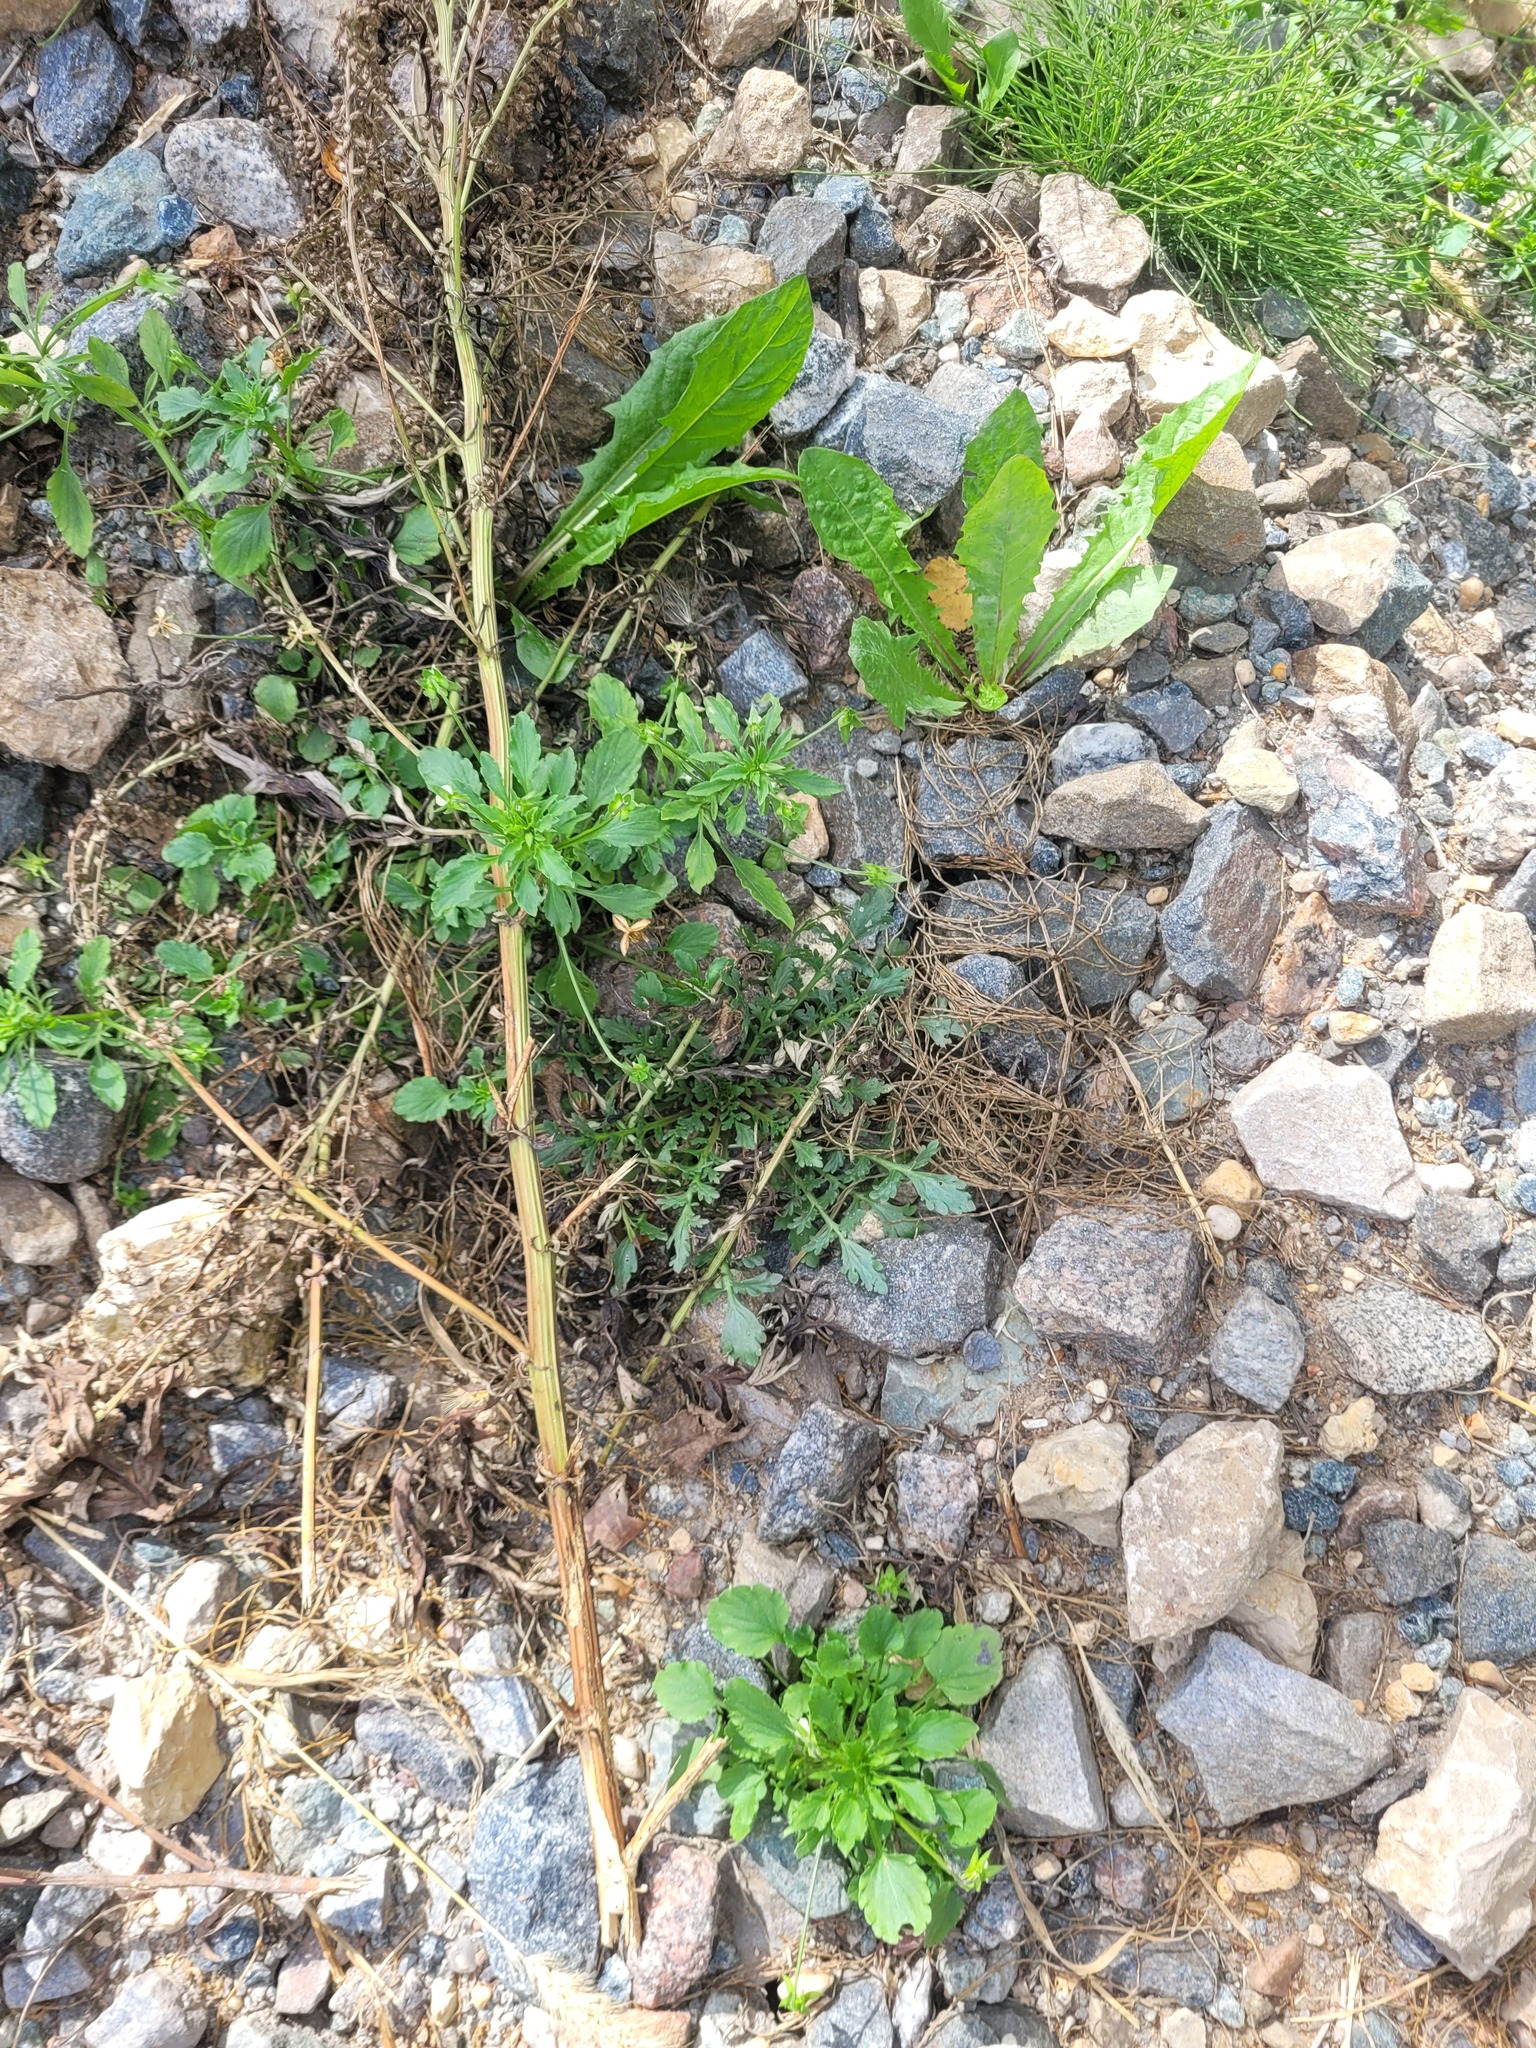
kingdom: Plantae
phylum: Tracheophyta
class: Magnoliopsida
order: Brassicales
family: Brassicaceae
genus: Lepidium
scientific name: Lepidium ruderale
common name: Narrow-leaved pepperwort
